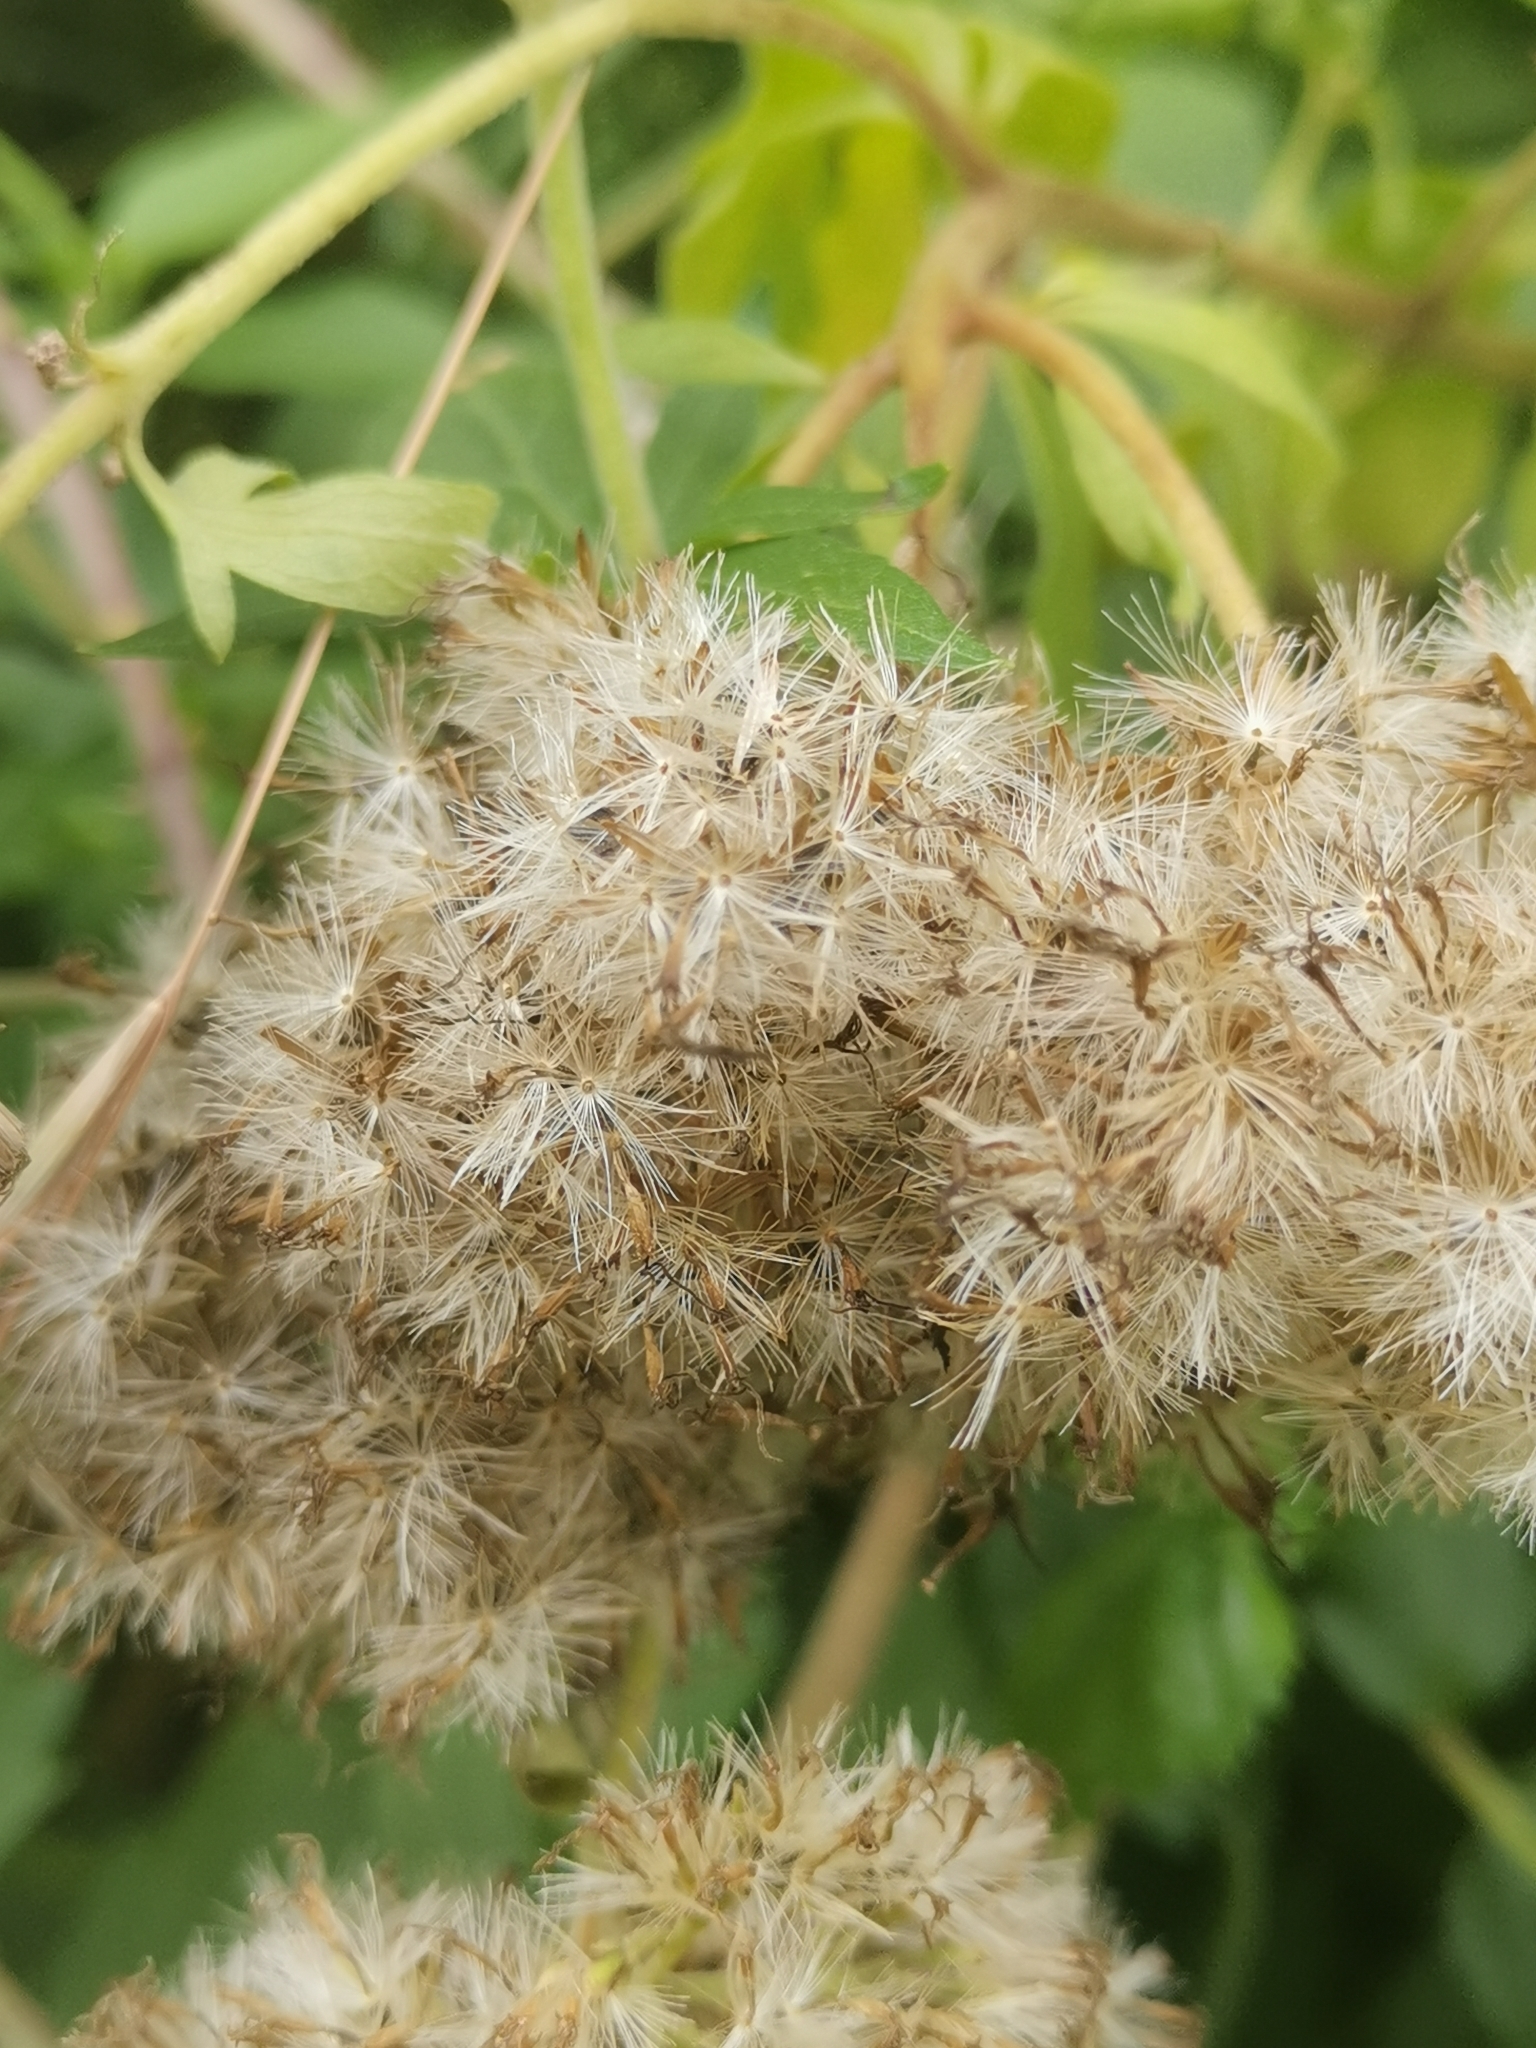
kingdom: Plantae
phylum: Tracheophyta
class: Magnoliopsida
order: Asterales
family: Asteraceae
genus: Eupatorium
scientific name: Eupatorium cannabinum
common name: Hemp-agrimony
